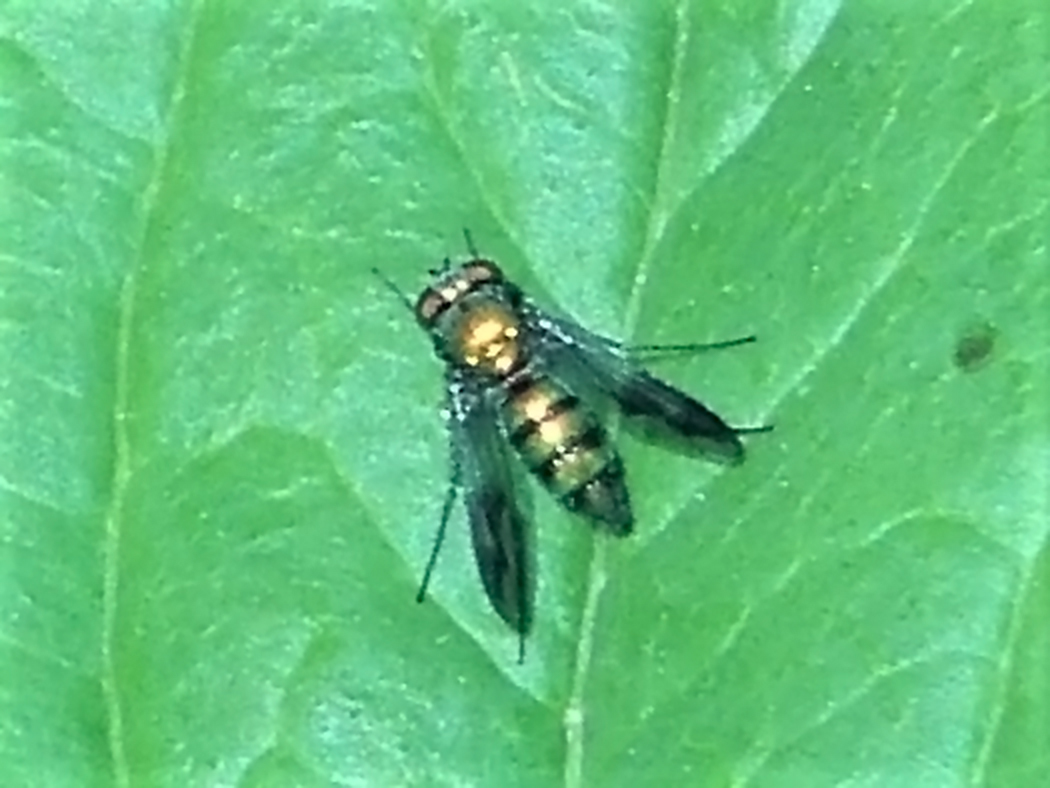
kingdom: Animalia
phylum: Arthropoda
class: Insecta
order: Diptera
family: Dolichopodidae
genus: Condylostylus
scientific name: Condylostylus patibulatus
